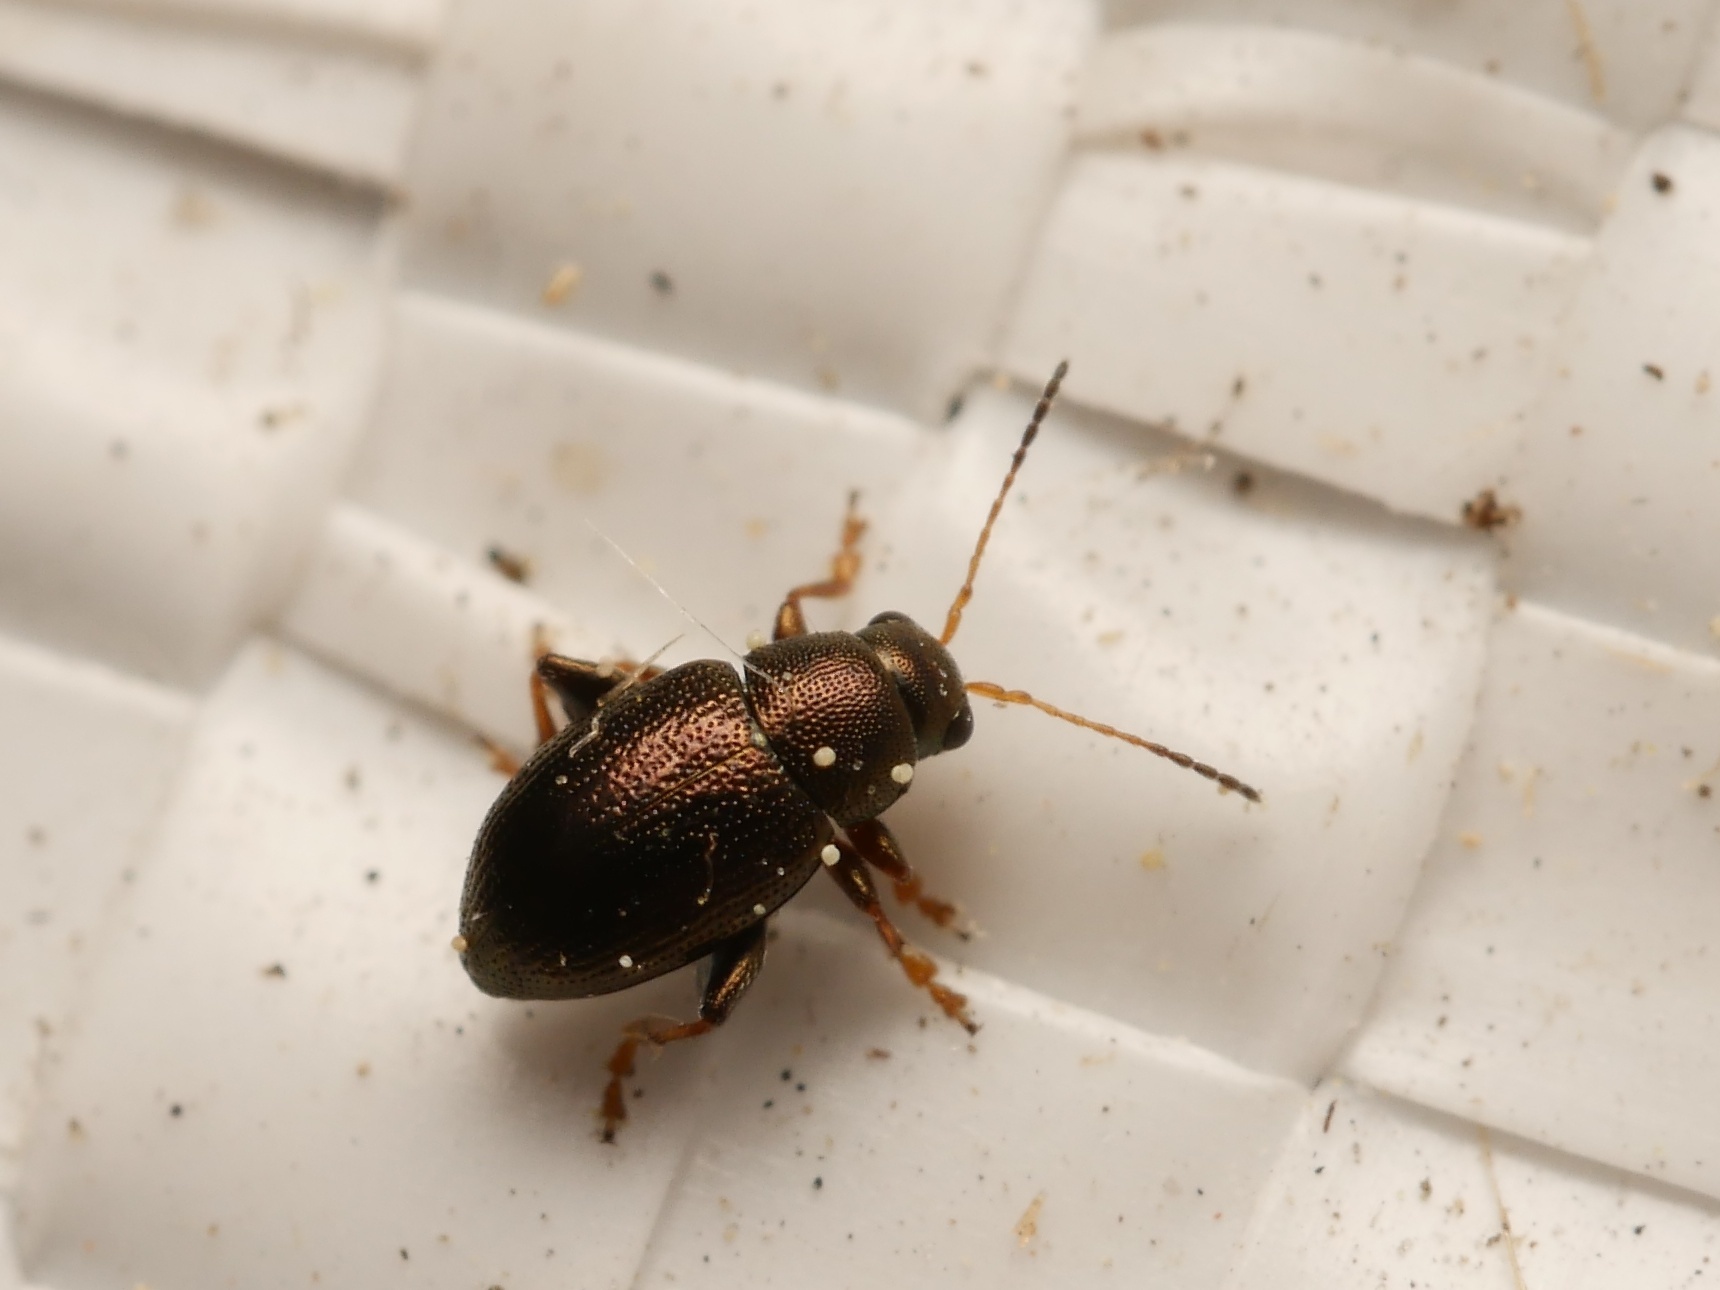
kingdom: Animalia
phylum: Arthropoda
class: Insecta
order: Coleoptera
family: Chrysomelidae
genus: Chaetocnema
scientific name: Chaetocnema hortensis
